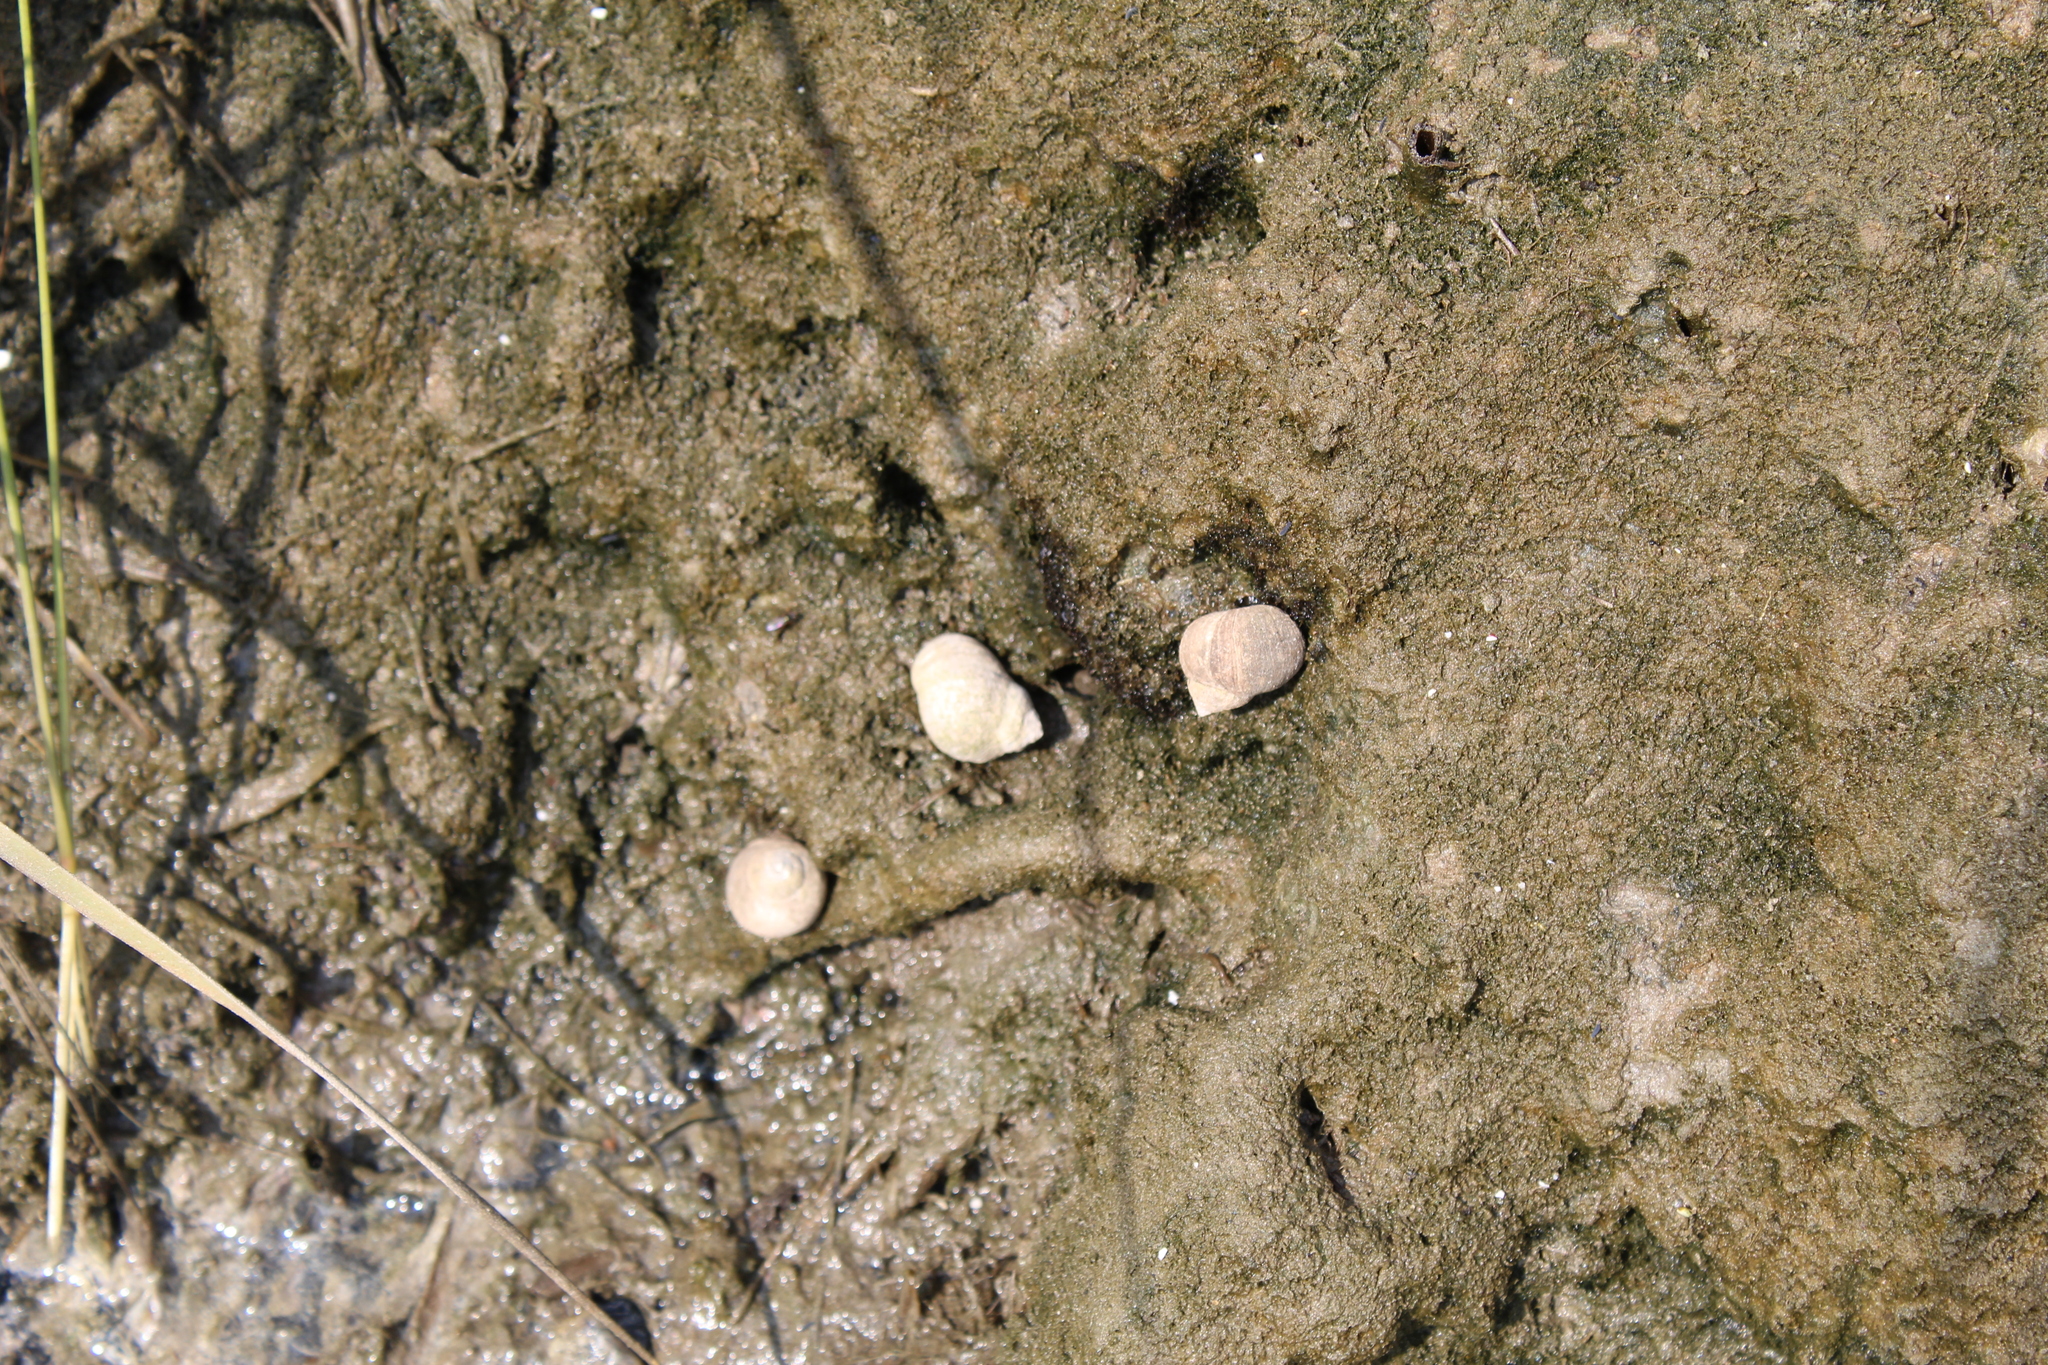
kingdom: Animalia
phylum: Mollusca
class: Gastropoda
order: Littorinimorpha
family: Littorinidae
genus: Littorina
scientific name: Littorina littorea
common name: Common periwinkle
